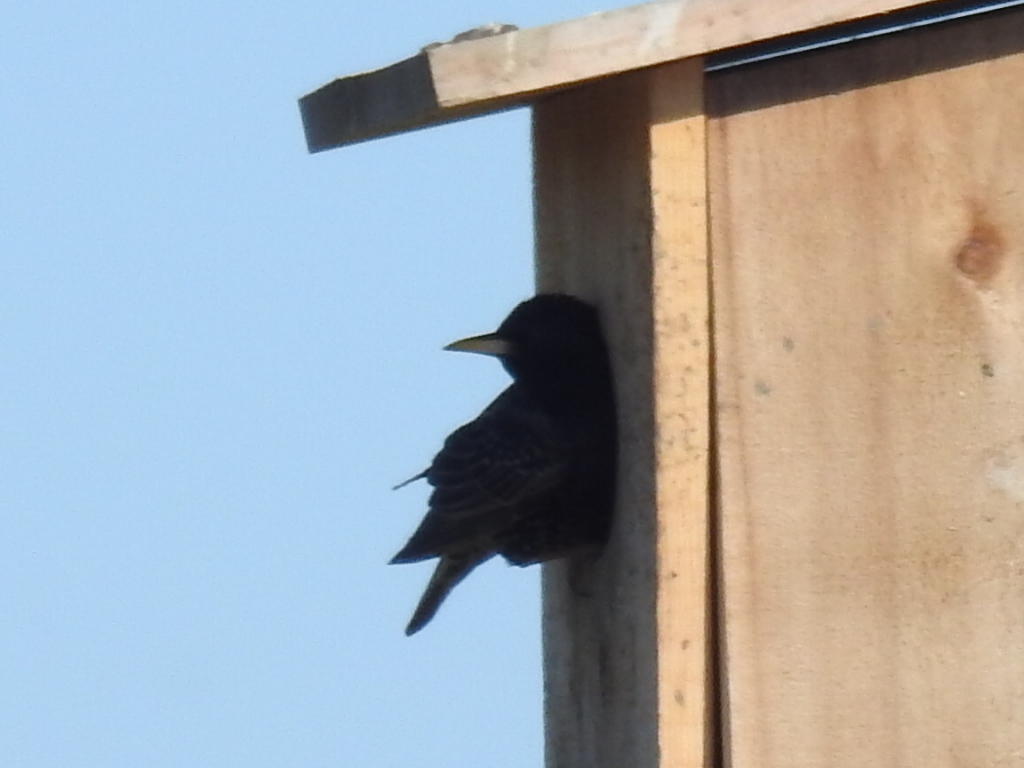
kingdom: Animalia
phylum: Chordata
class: Aves
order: Passeriformes
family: Sturnidae
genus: Sturnus
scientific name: Sturnus vulgaris
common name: Common starling
